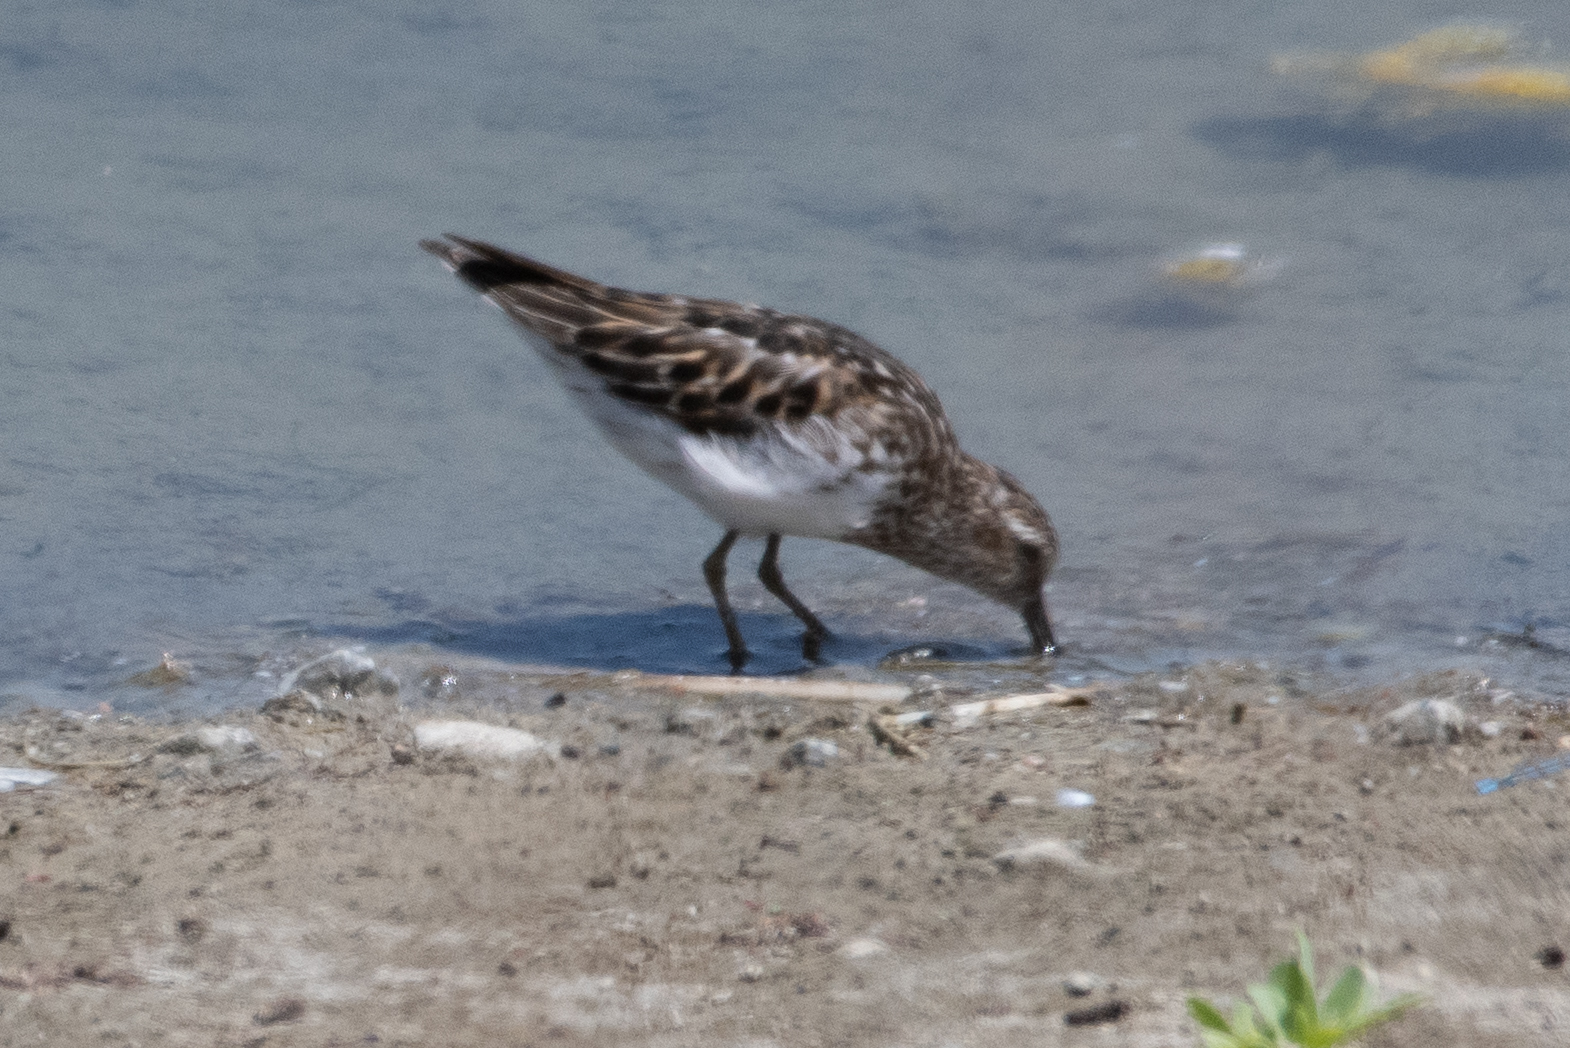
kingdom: Animalia
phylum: Chordata
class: Aves
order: Charadriiformes
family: Scolopacidae
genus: Calidris
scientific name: Calidris minutilla
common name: Least sandpiper
